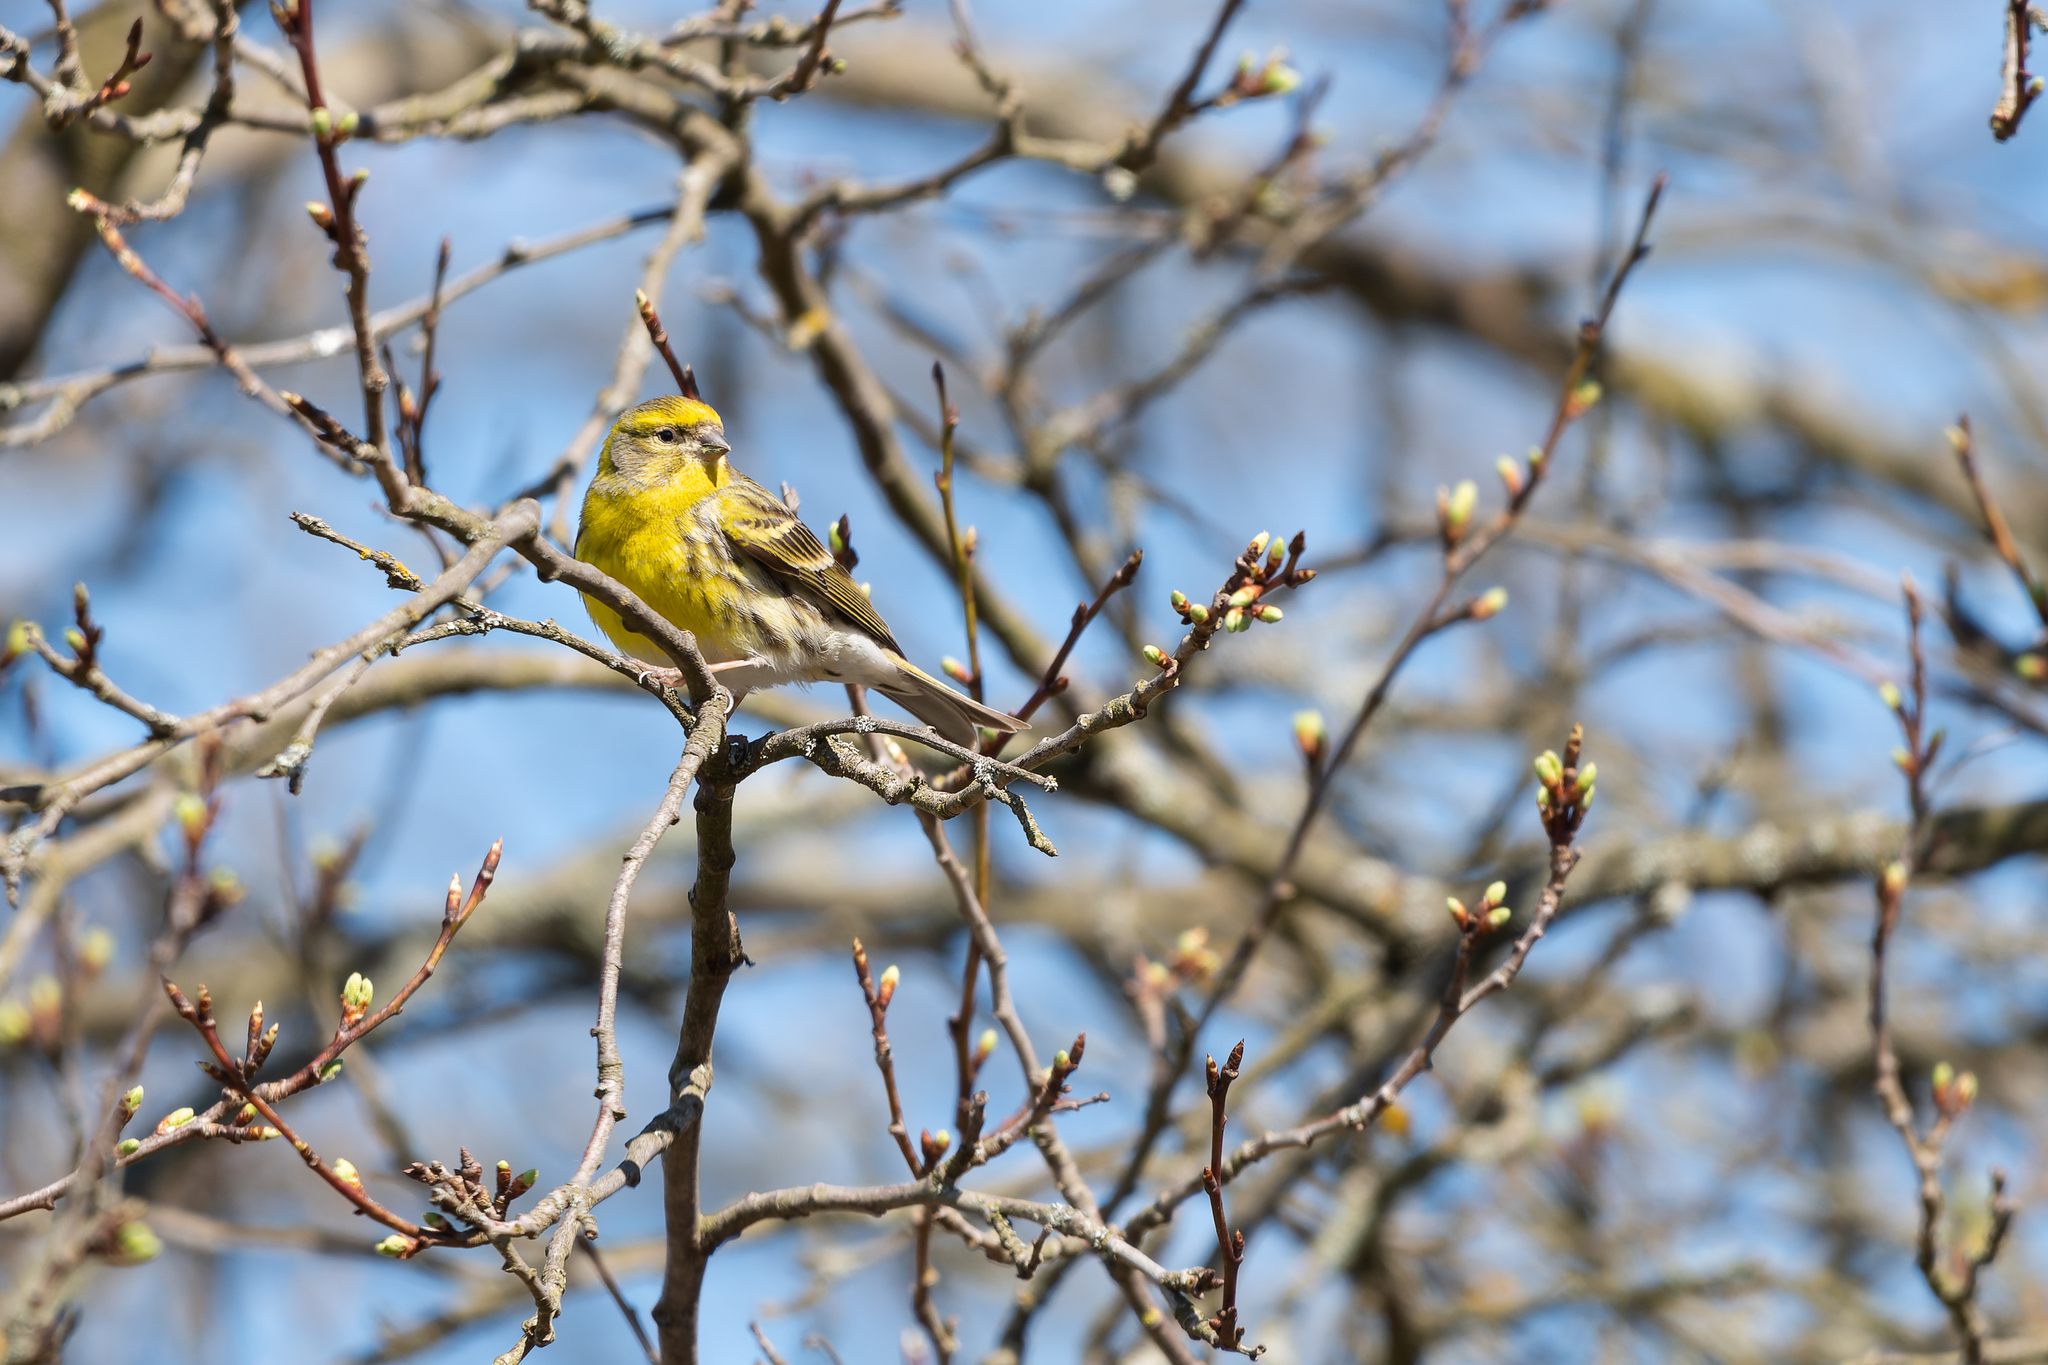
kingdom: Animalia
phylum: Chordata
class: Aves
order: Passeriformes
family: Fringillidae
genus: Serinus
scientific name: Serinus serinus
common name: European serin
